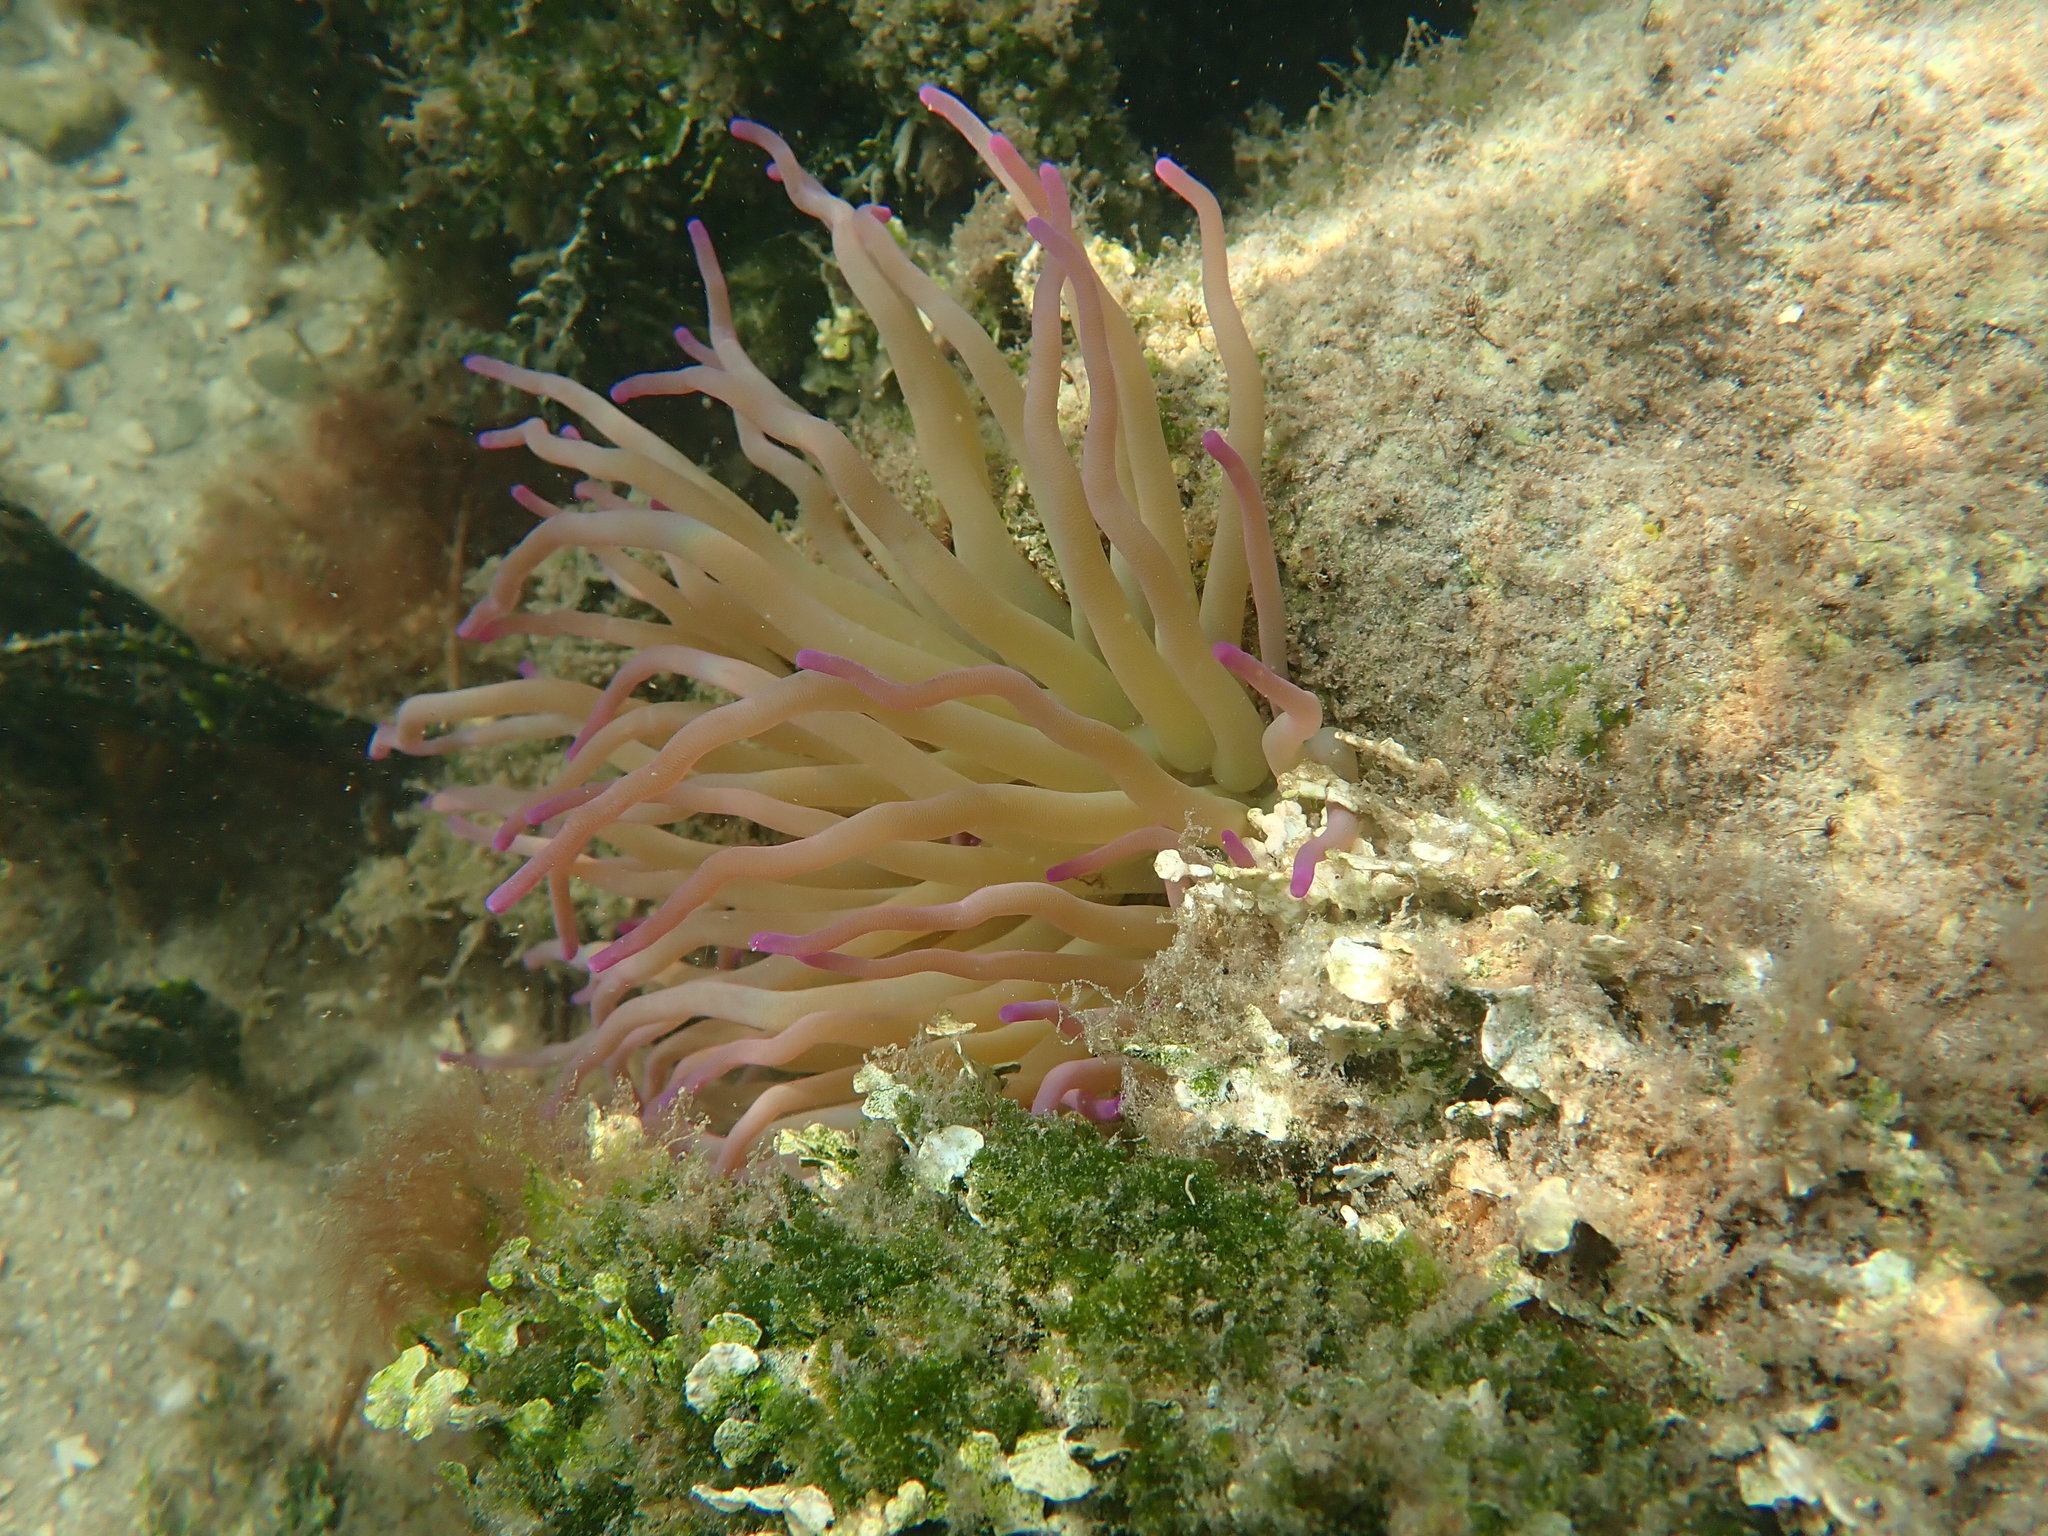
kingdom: Animalia
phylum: Cnidaria
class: Anthozoa
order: Actiniaria
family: Actiniidae
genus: Condylactis
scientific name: Condylactis gigantea
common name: Giant caribbean anemone
